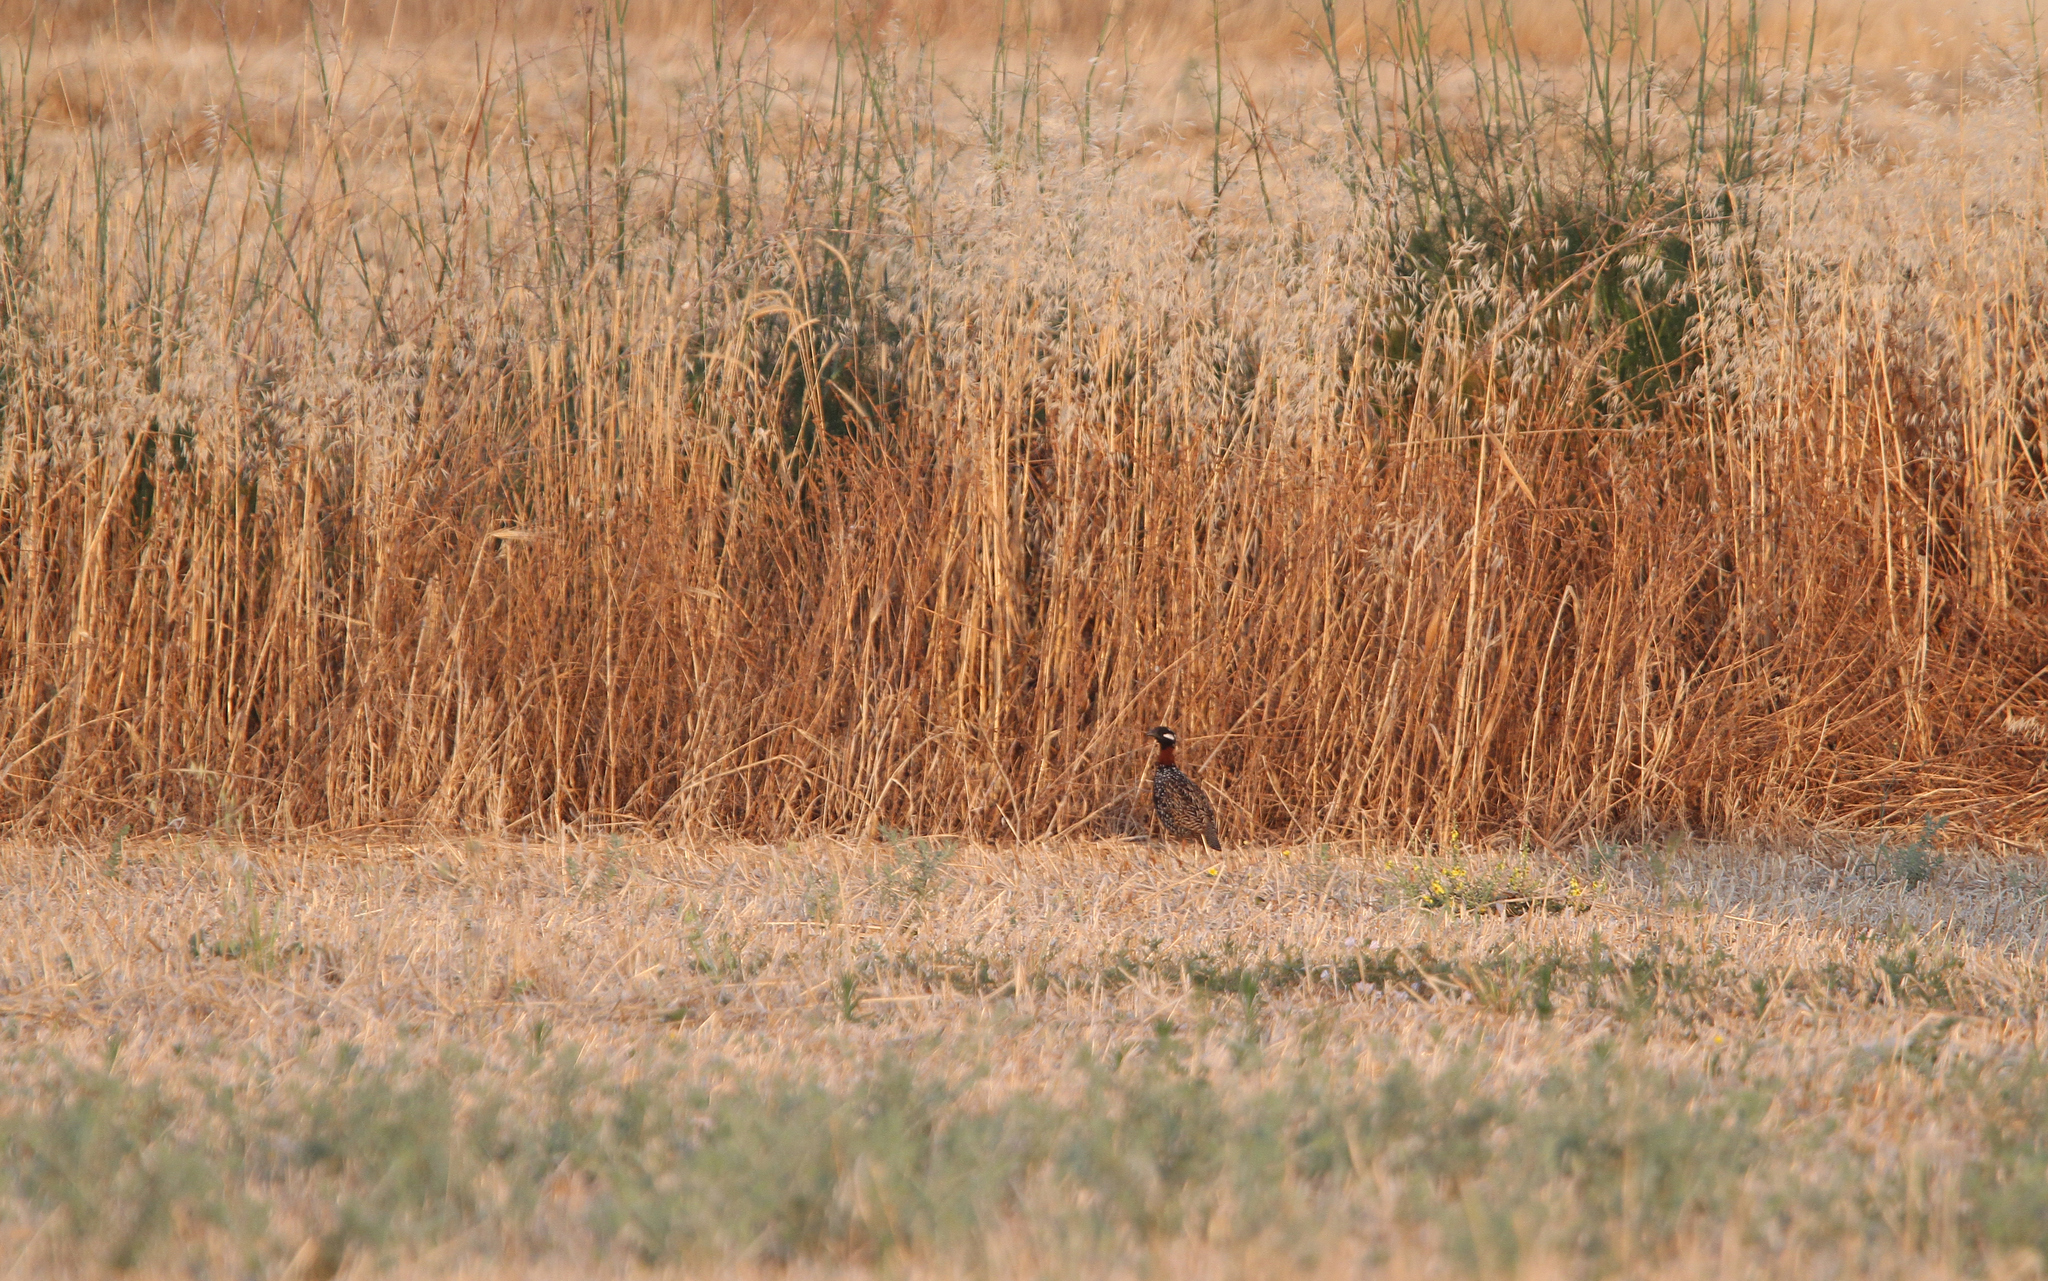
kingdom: Animalia
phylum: Chordata
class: Aves
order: Galliformes
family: Phasianidae
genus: Francolinus
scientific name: Francolinus francolinus
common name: Black francolin
